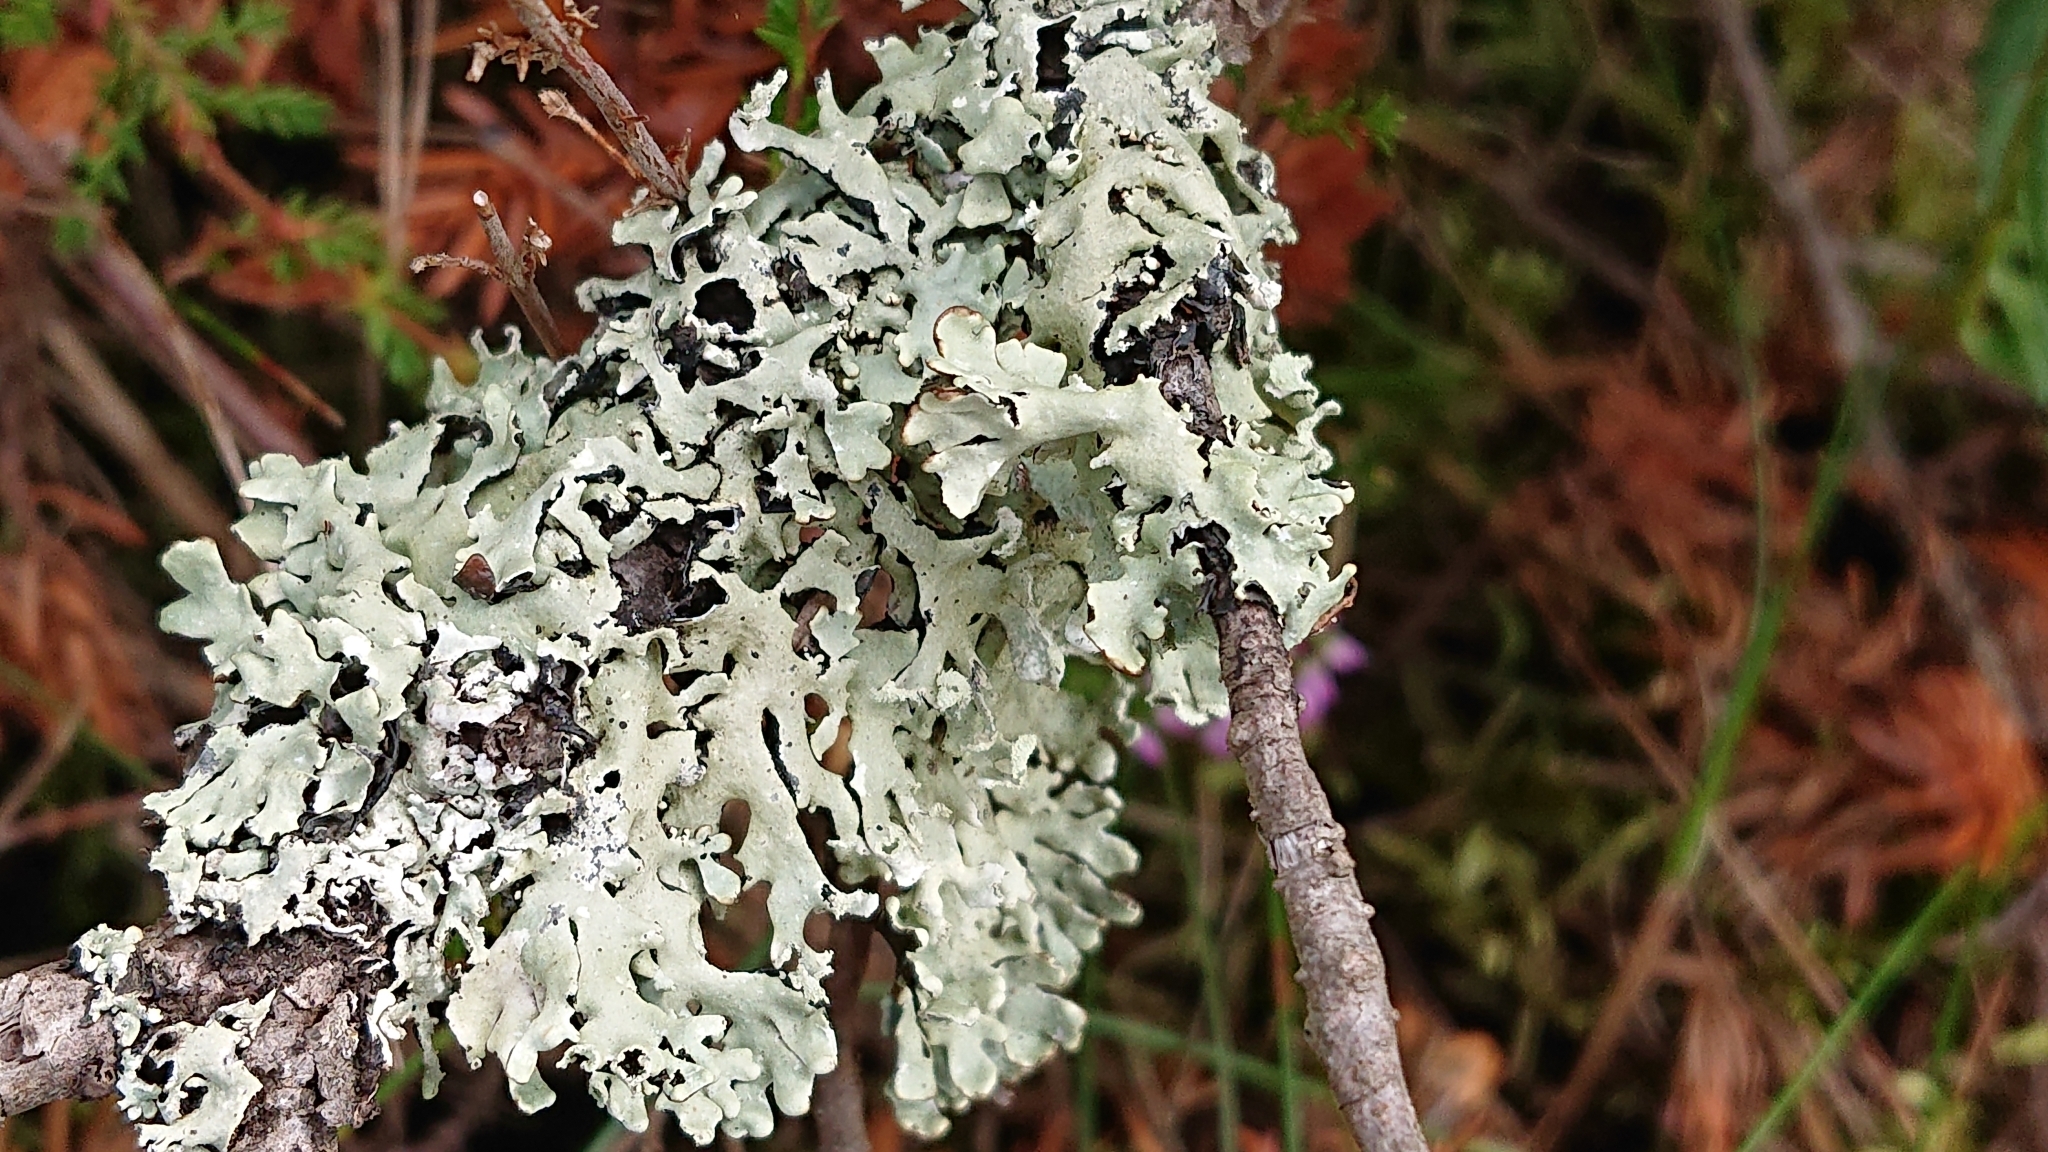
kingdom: Fungi
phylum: Ascomycota
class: Lecanoromycetes
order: Lecanorales
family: Parmeliaceae
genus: Hypogymnia
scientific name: Hypogymnia physodes
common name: Dark crottle
